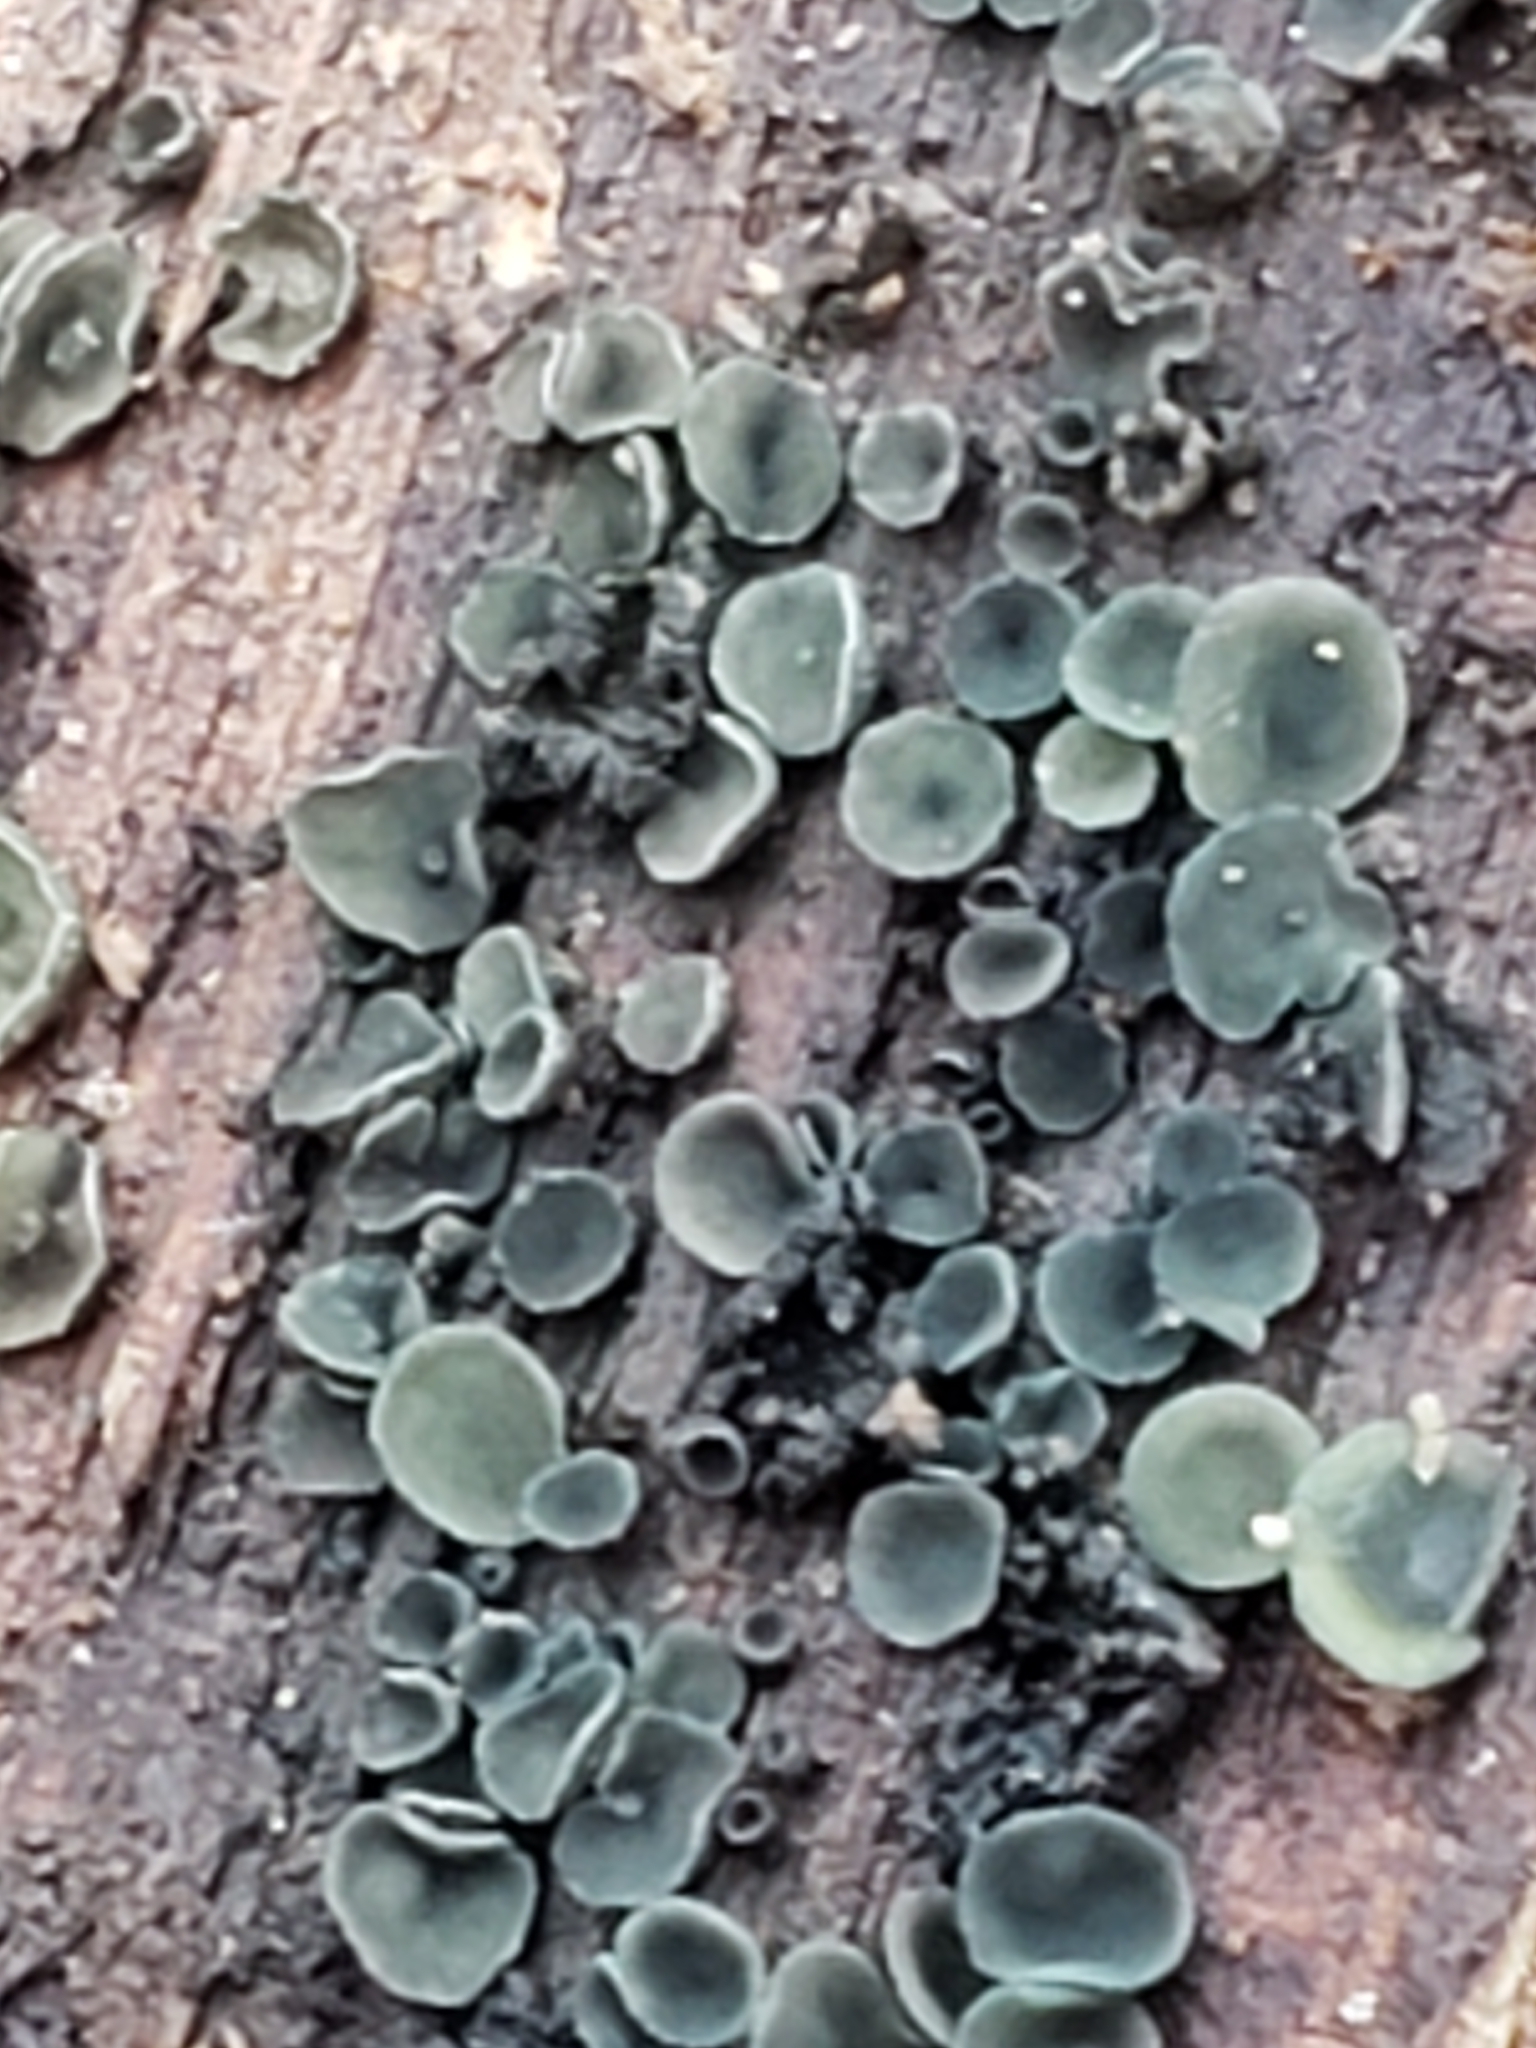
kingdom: Fungi
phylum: Ascomycota
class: Leotiomycetes
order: Helotiales
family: Chlorospleniaceae
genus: Chlorosplenium
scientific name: Chlorosplenium chlora
